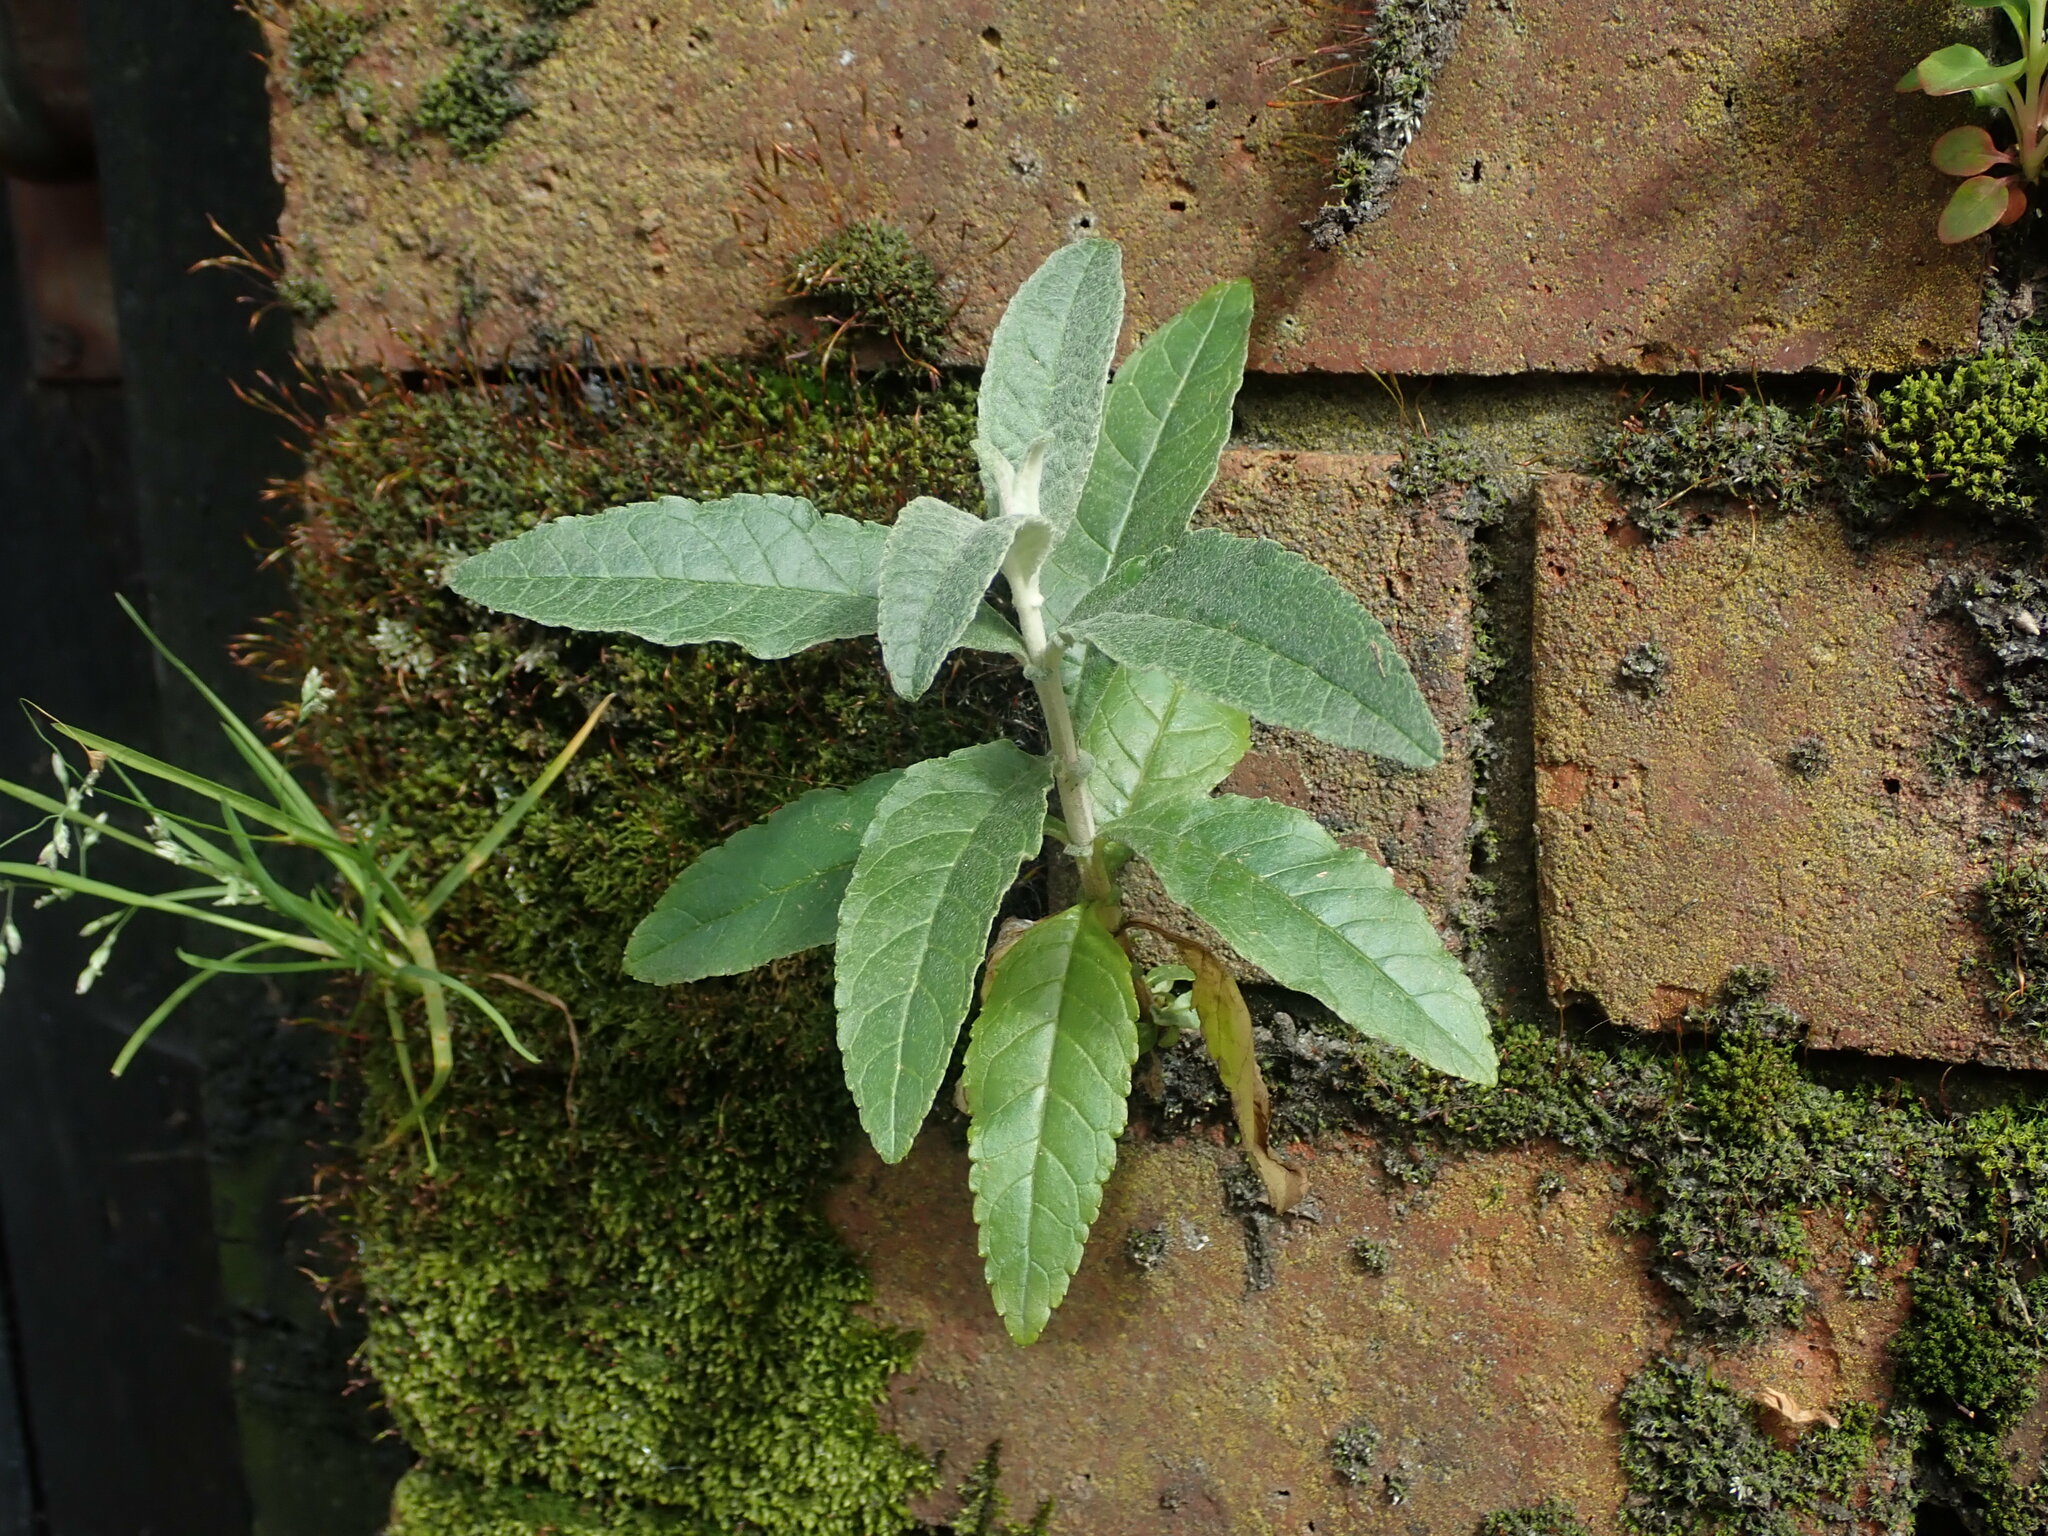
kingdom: Plantae
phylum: Tracheophyta
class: Magnoliopsida
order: Lamiales
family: Scrophulariaceae
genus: Buddleja
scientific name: Buddleja davidii
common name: Butterfly-bush
